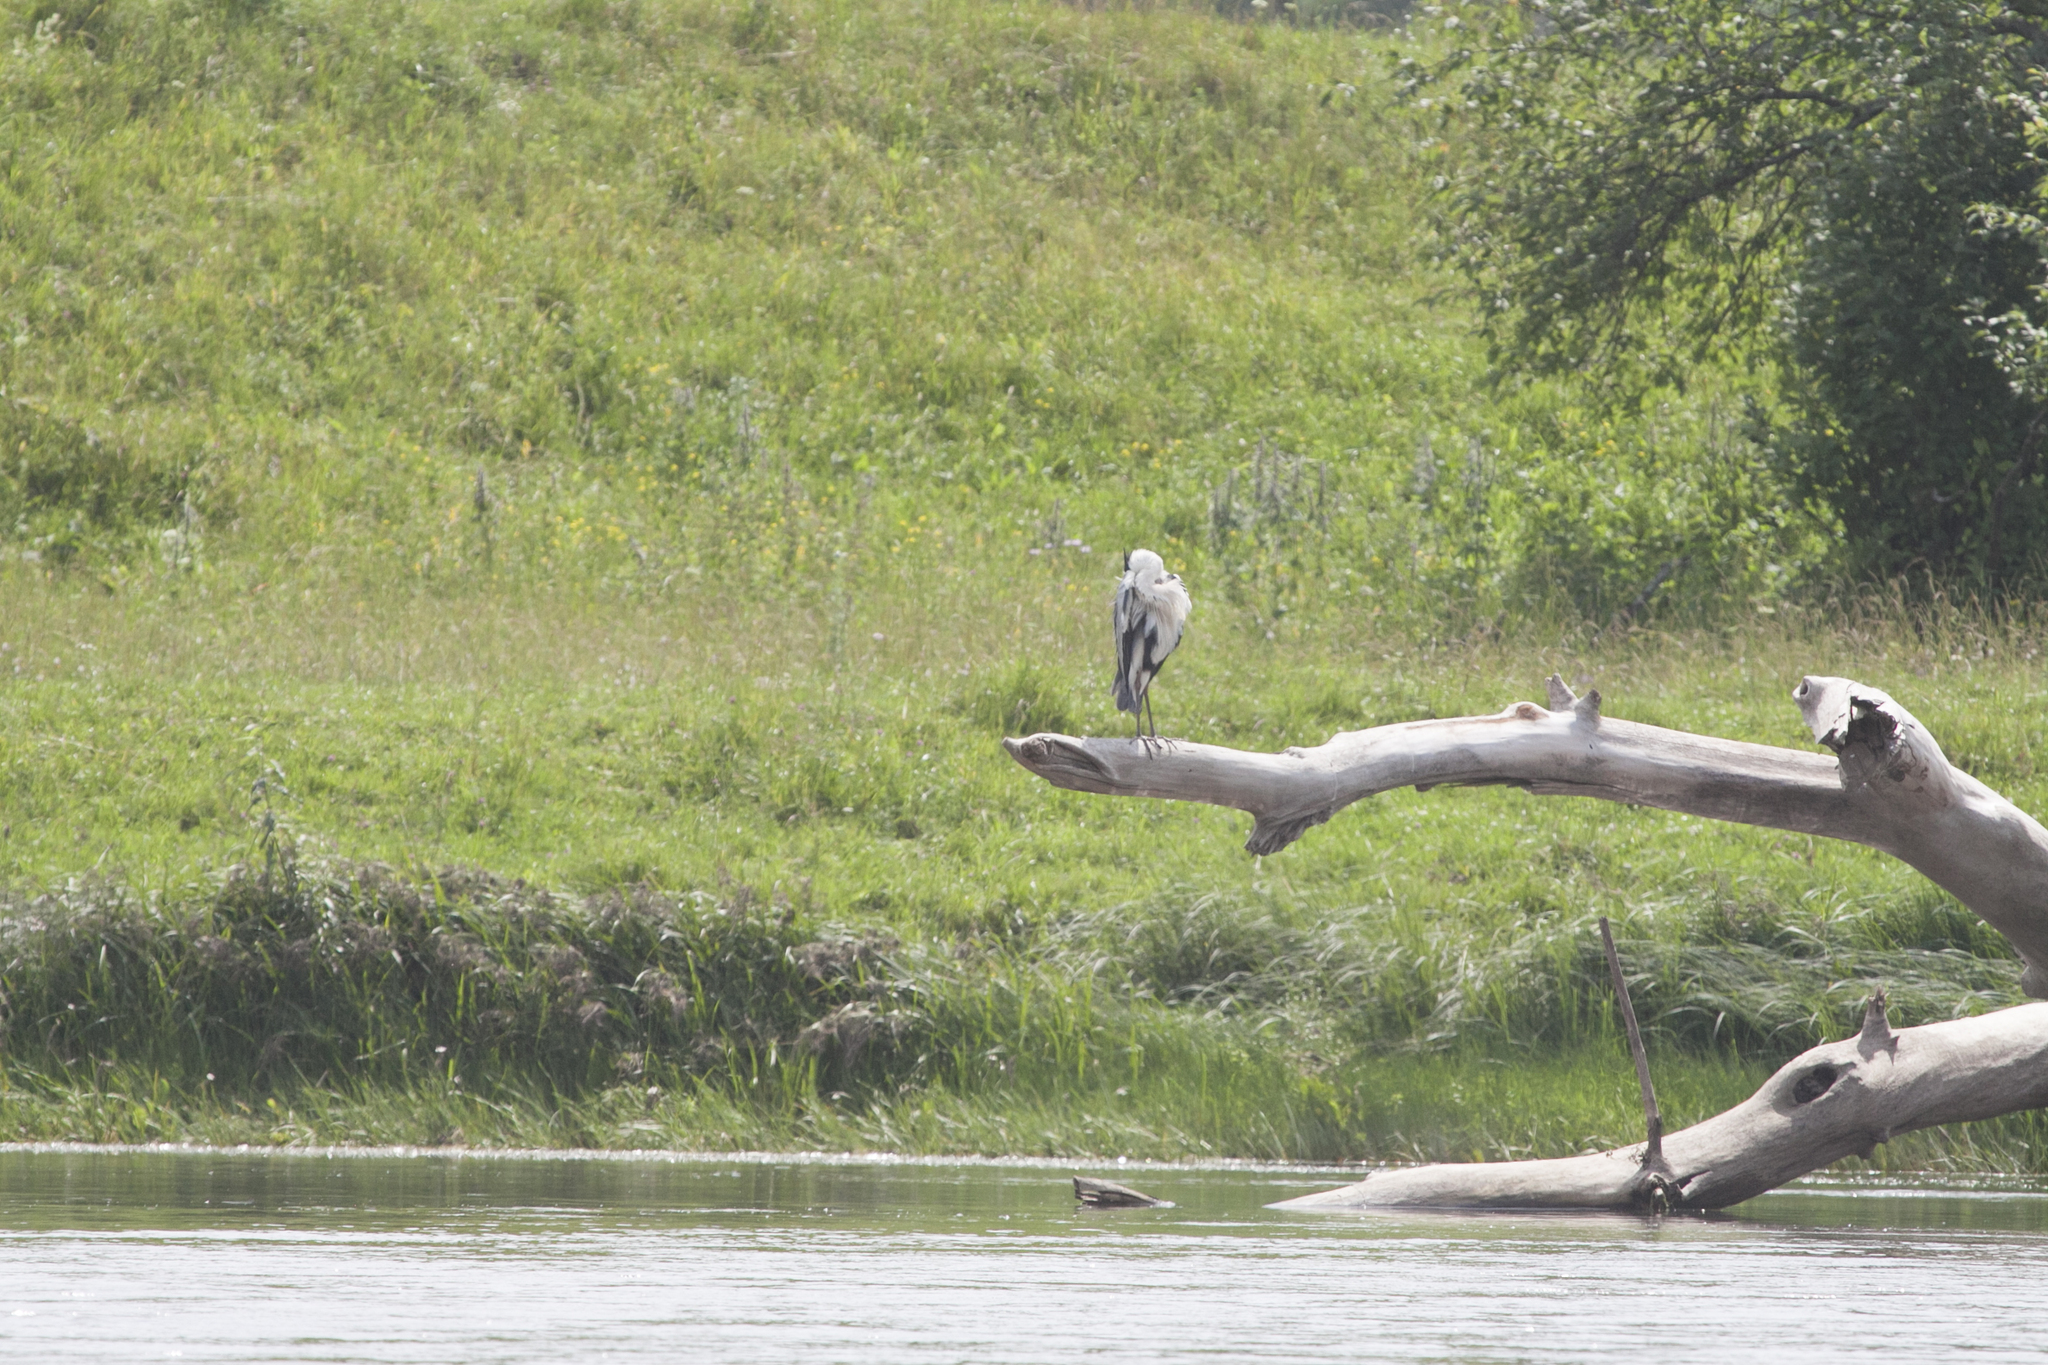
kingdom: Animalia
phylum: Chordata
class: Aves
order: Pelecaniformes
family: Ardeidae
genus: Ardea
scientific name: Ardea cinerea
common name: Grey heron
